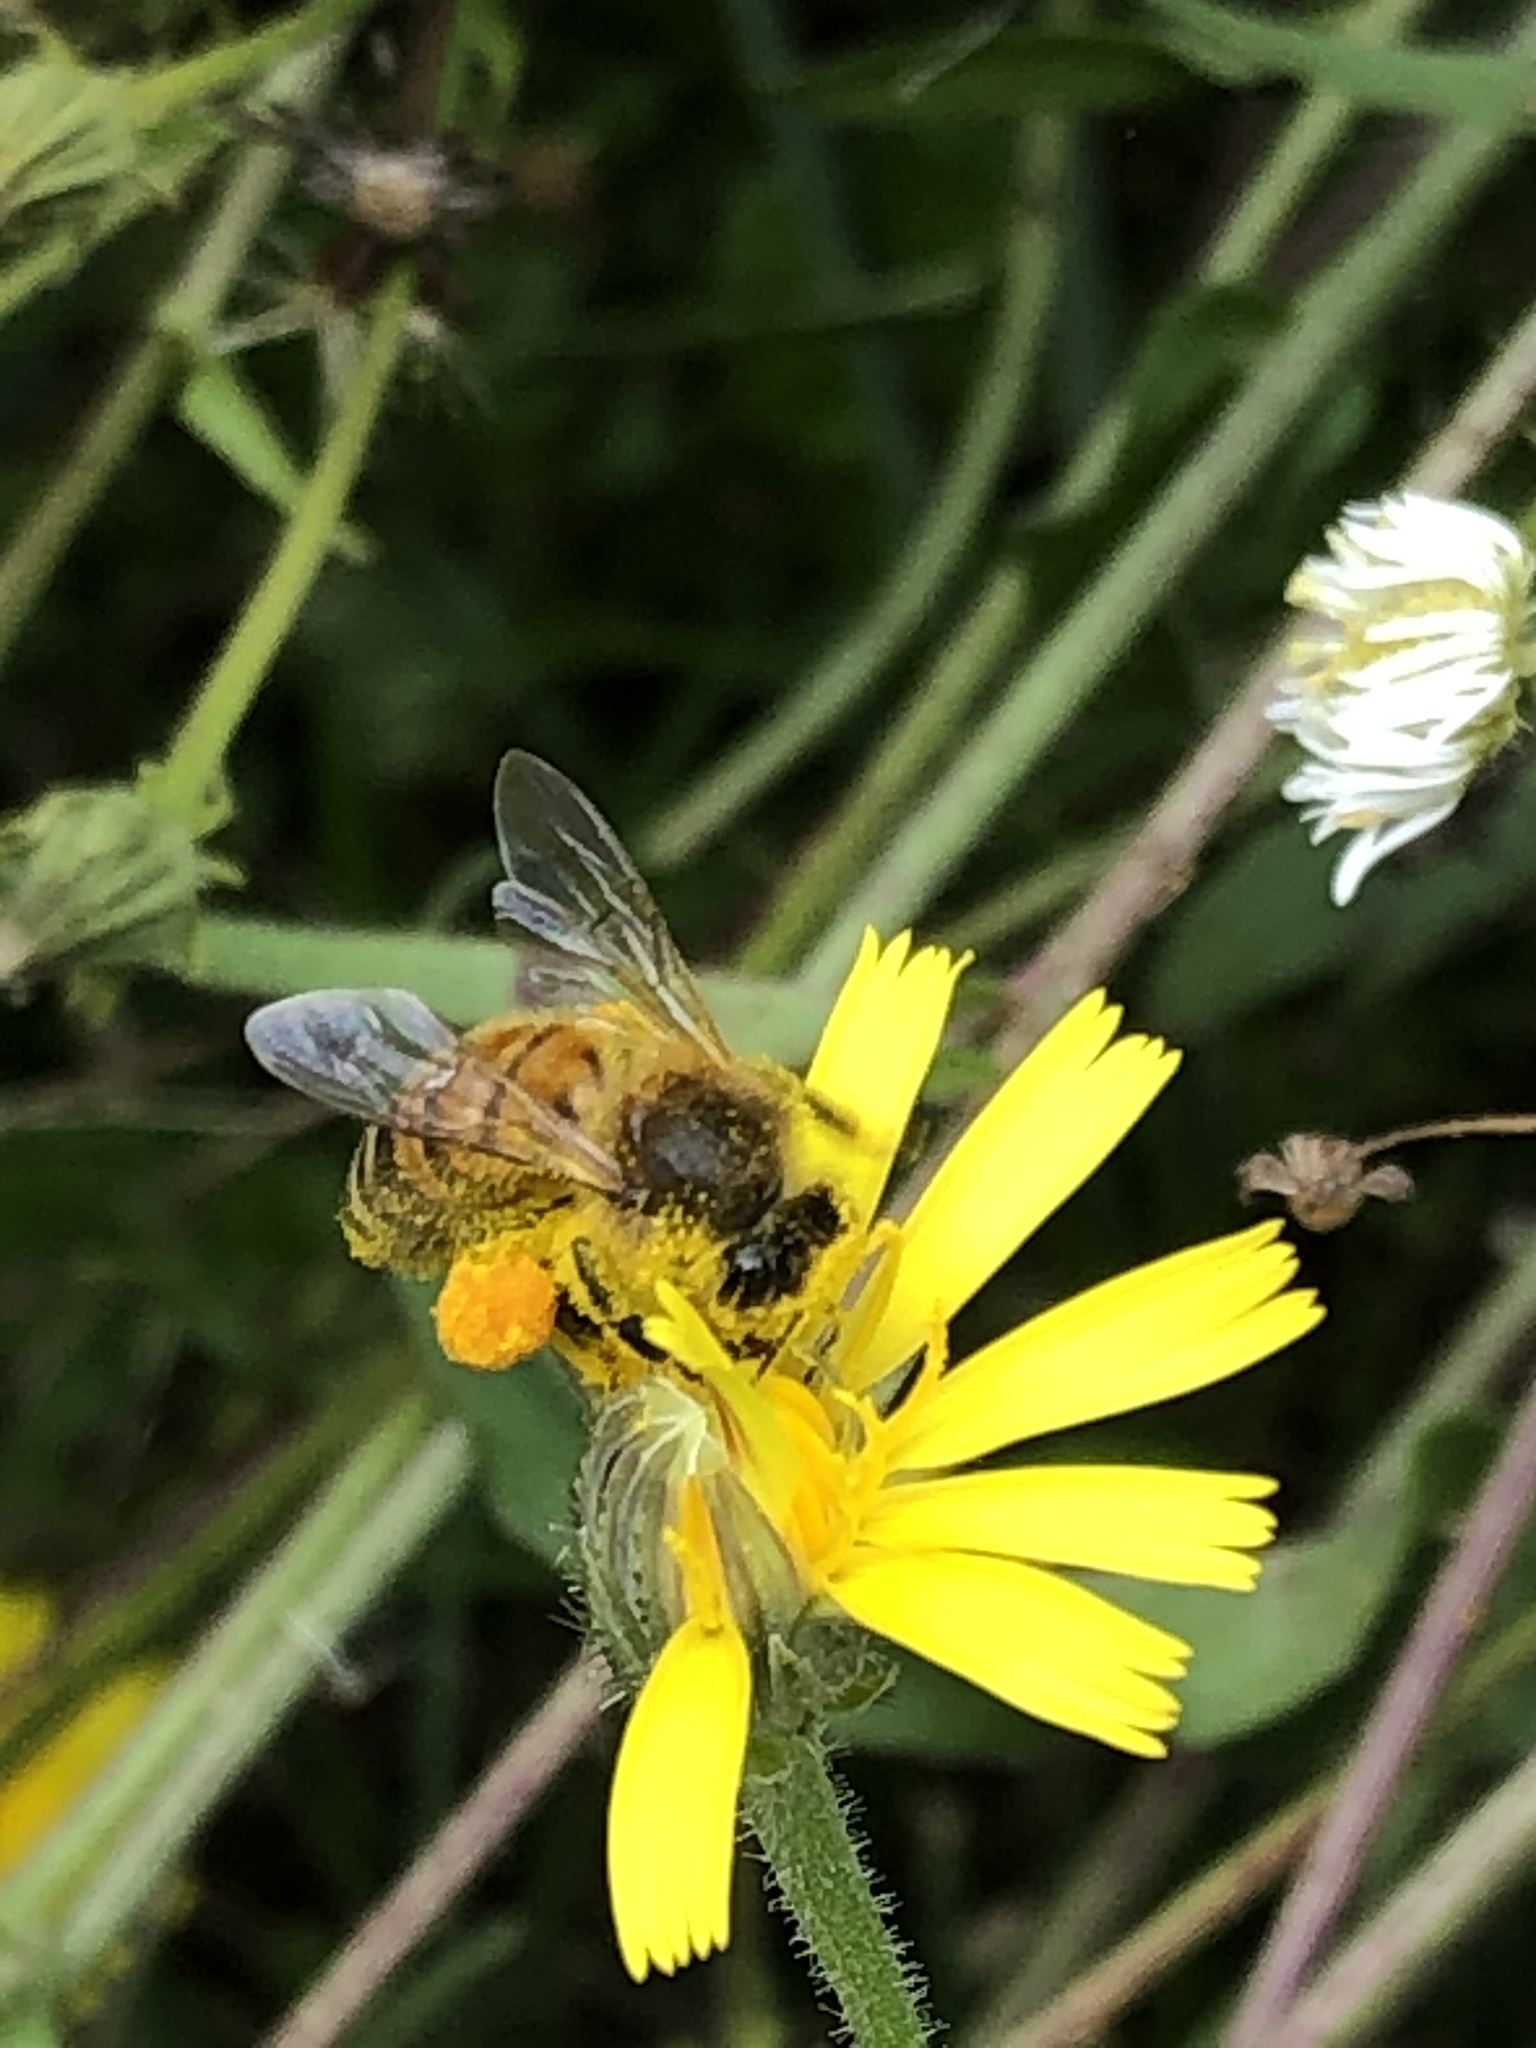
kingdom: Animalia
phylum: Arthropoda
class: Insecta
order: Hymenoptera
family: Apidae
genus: Apis
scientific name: Apis mellifera
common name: Honey bee
